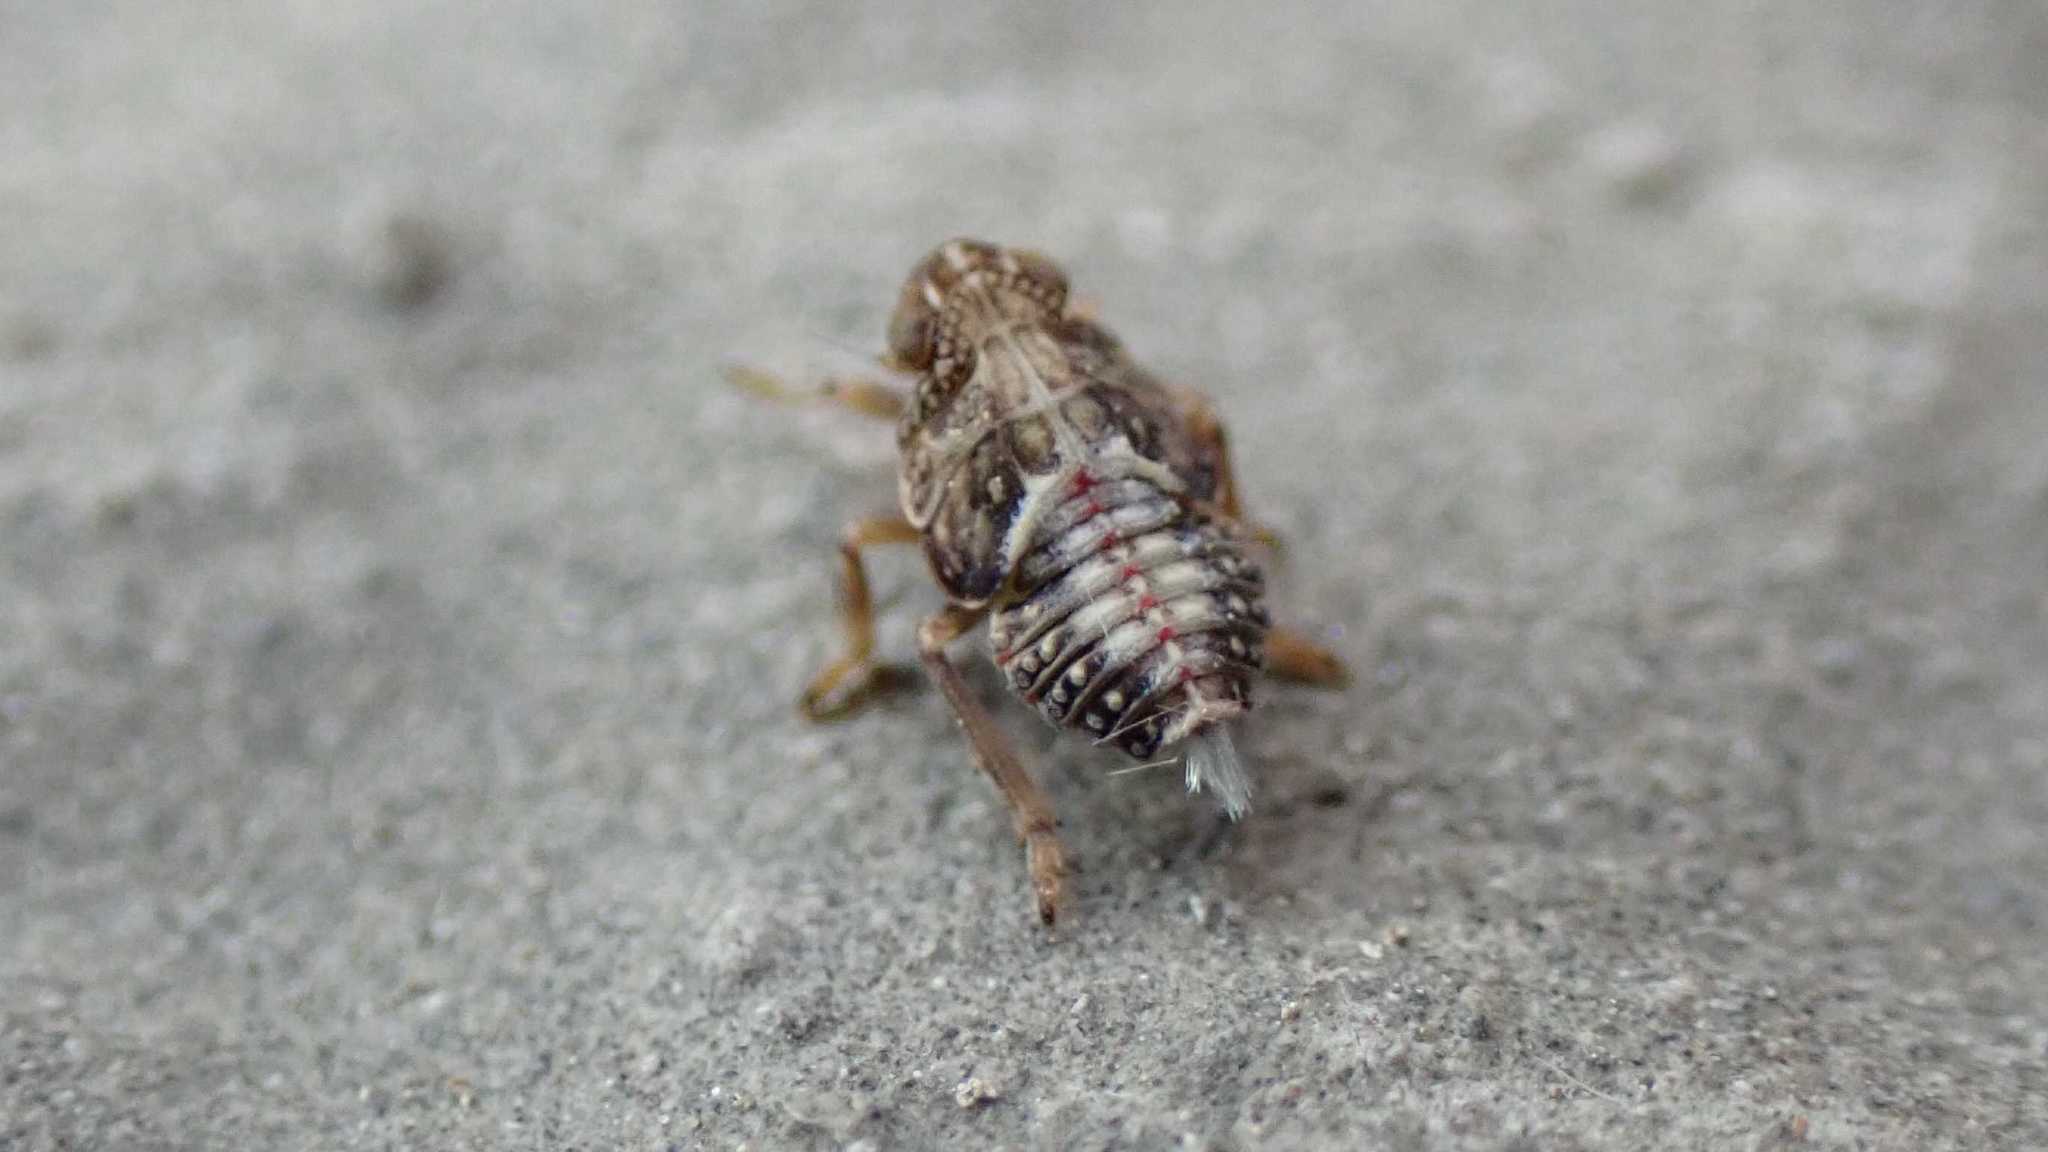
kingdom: Animalia
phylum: Arthropoda
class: Insecta
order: Hemiptera
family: Issidae
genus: Issus
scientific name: Issus
